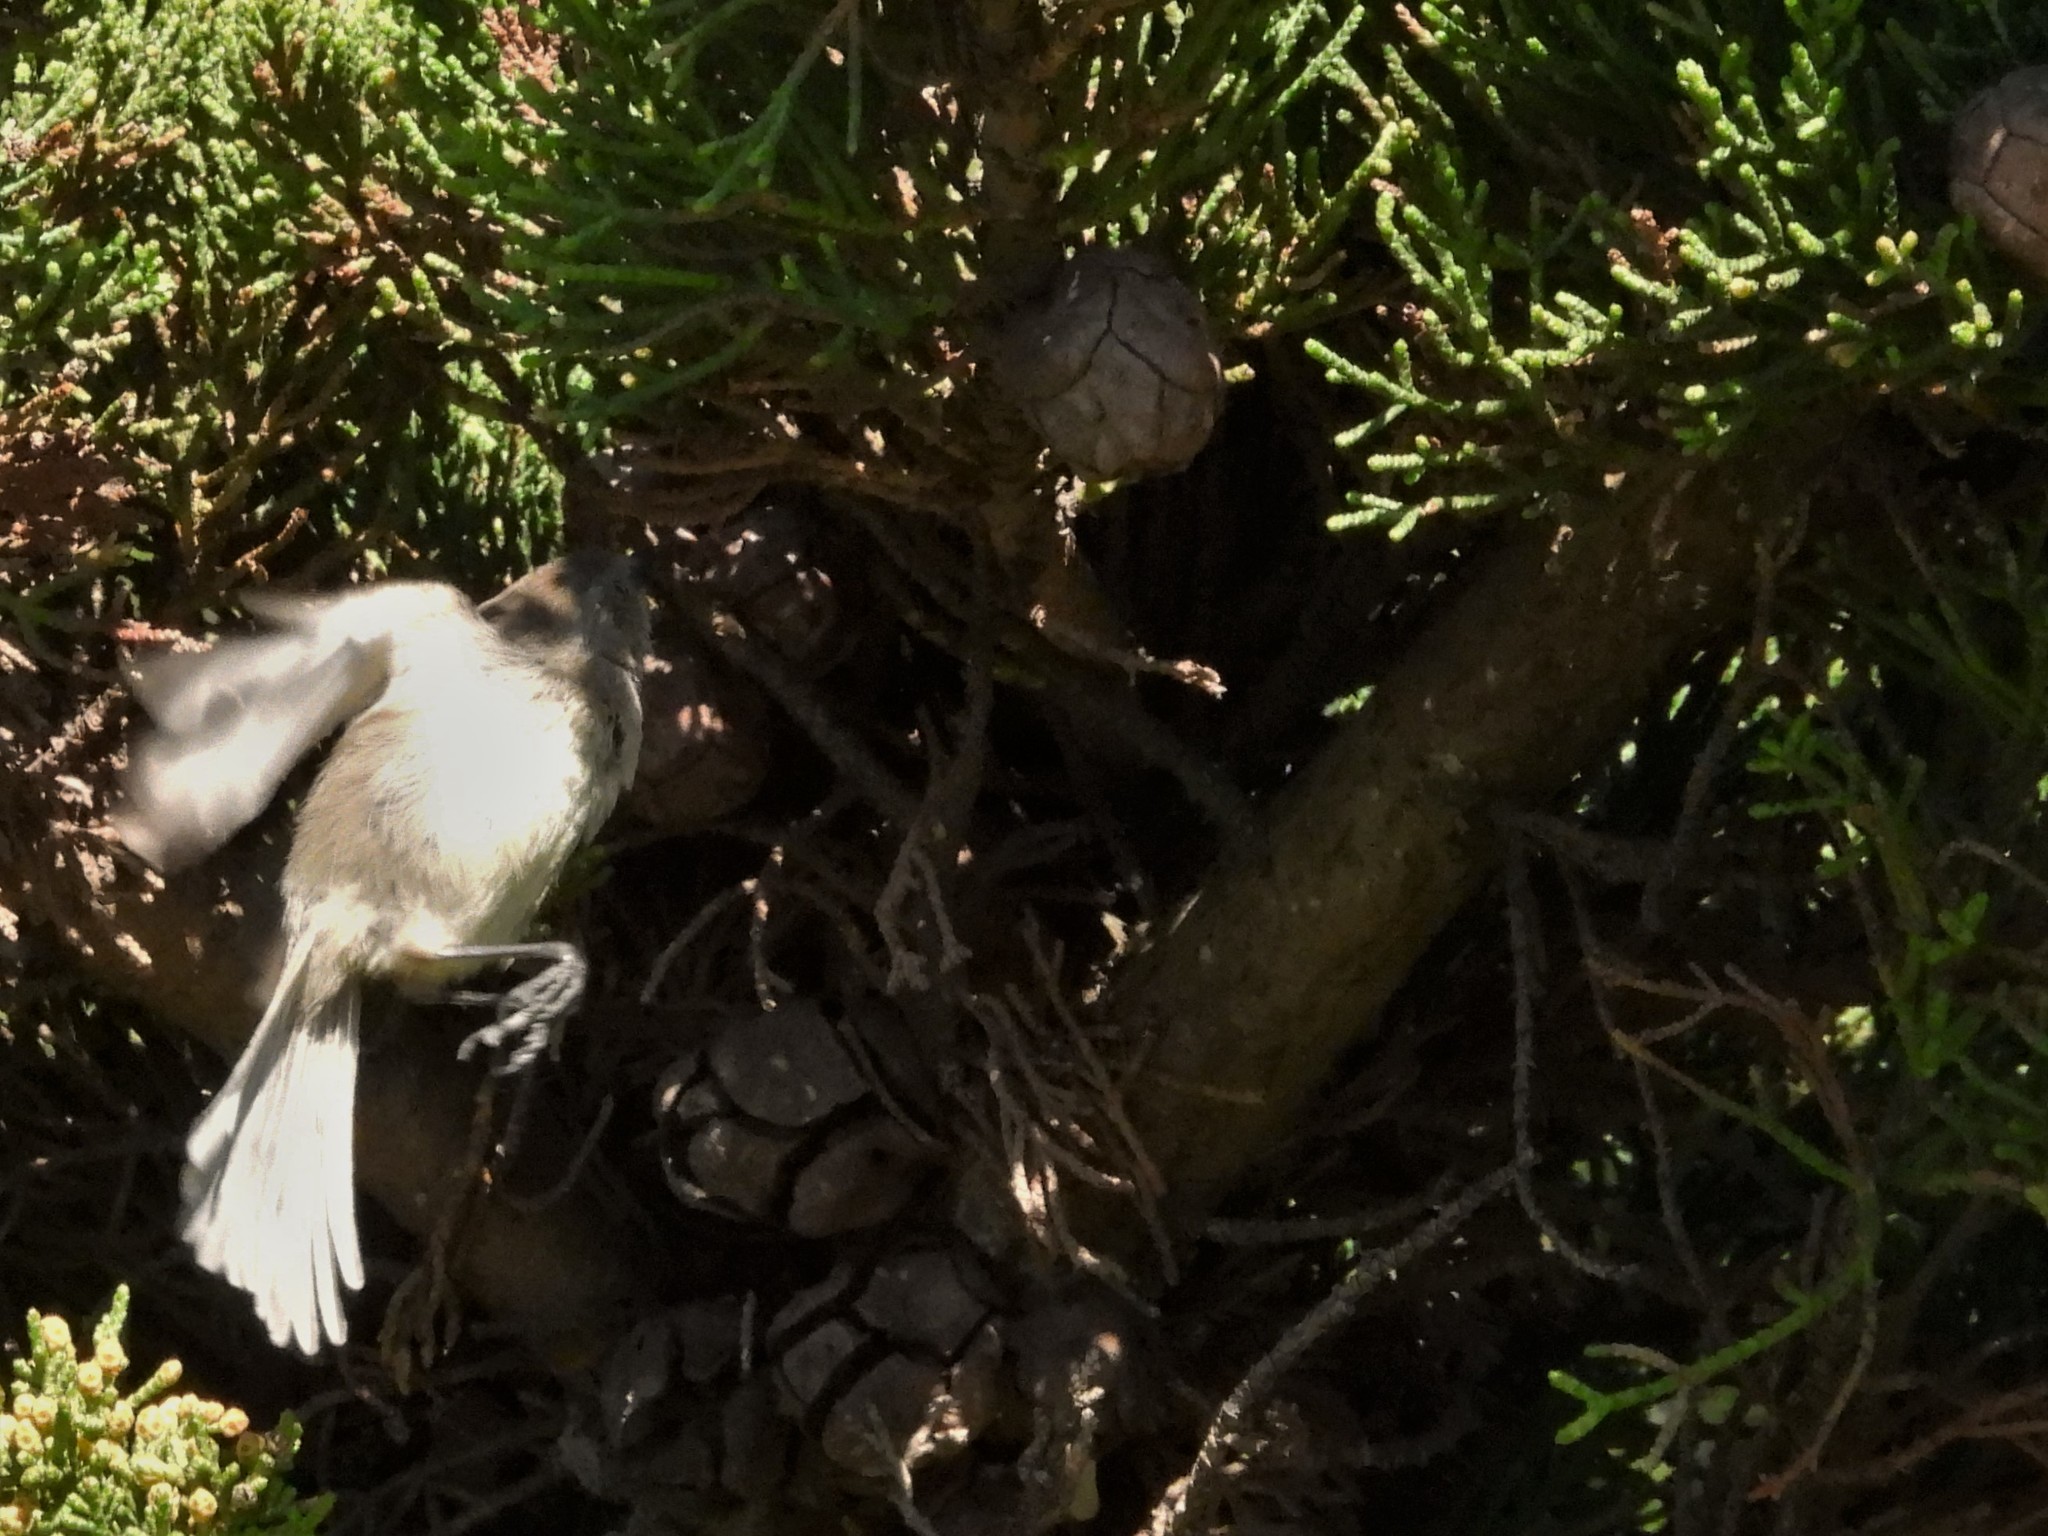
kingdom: Animalia
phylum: Chordata
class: Aves
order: Passeriformes
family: Aegithalidae
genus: Psaltriparus
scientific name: Psaltriparus minimus
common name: American bushtit
